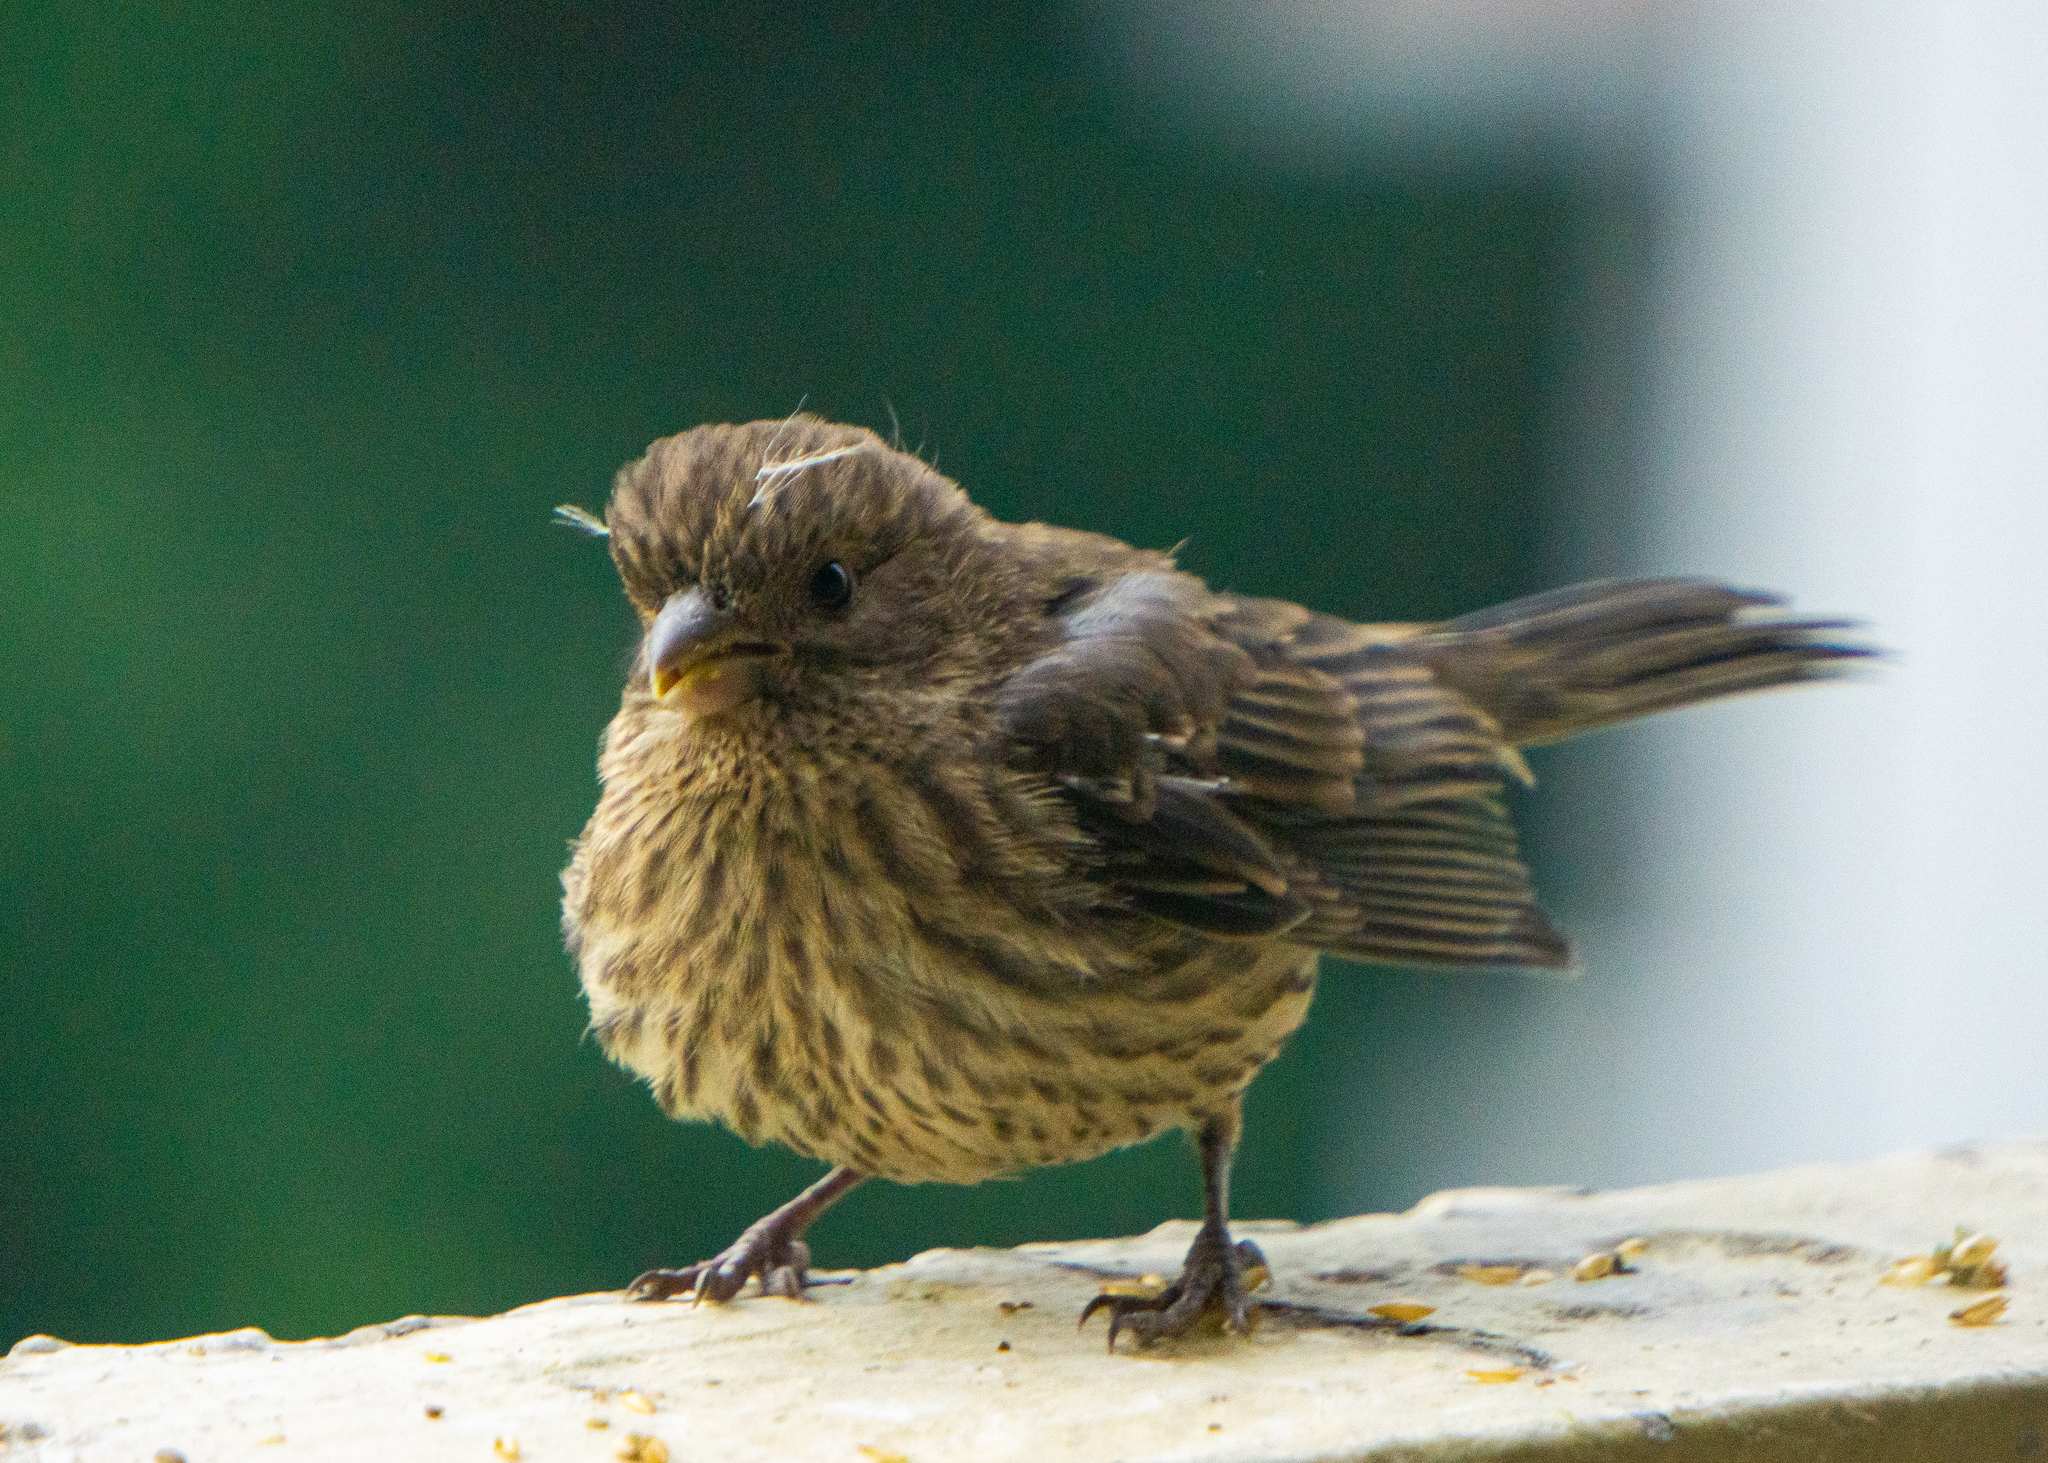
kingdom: Animalia
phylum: Chordata
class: Aves
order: Passeriformes
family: Fringillidae
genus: Haemorhous
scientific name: Haemorhous mexicanus
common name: House finch
